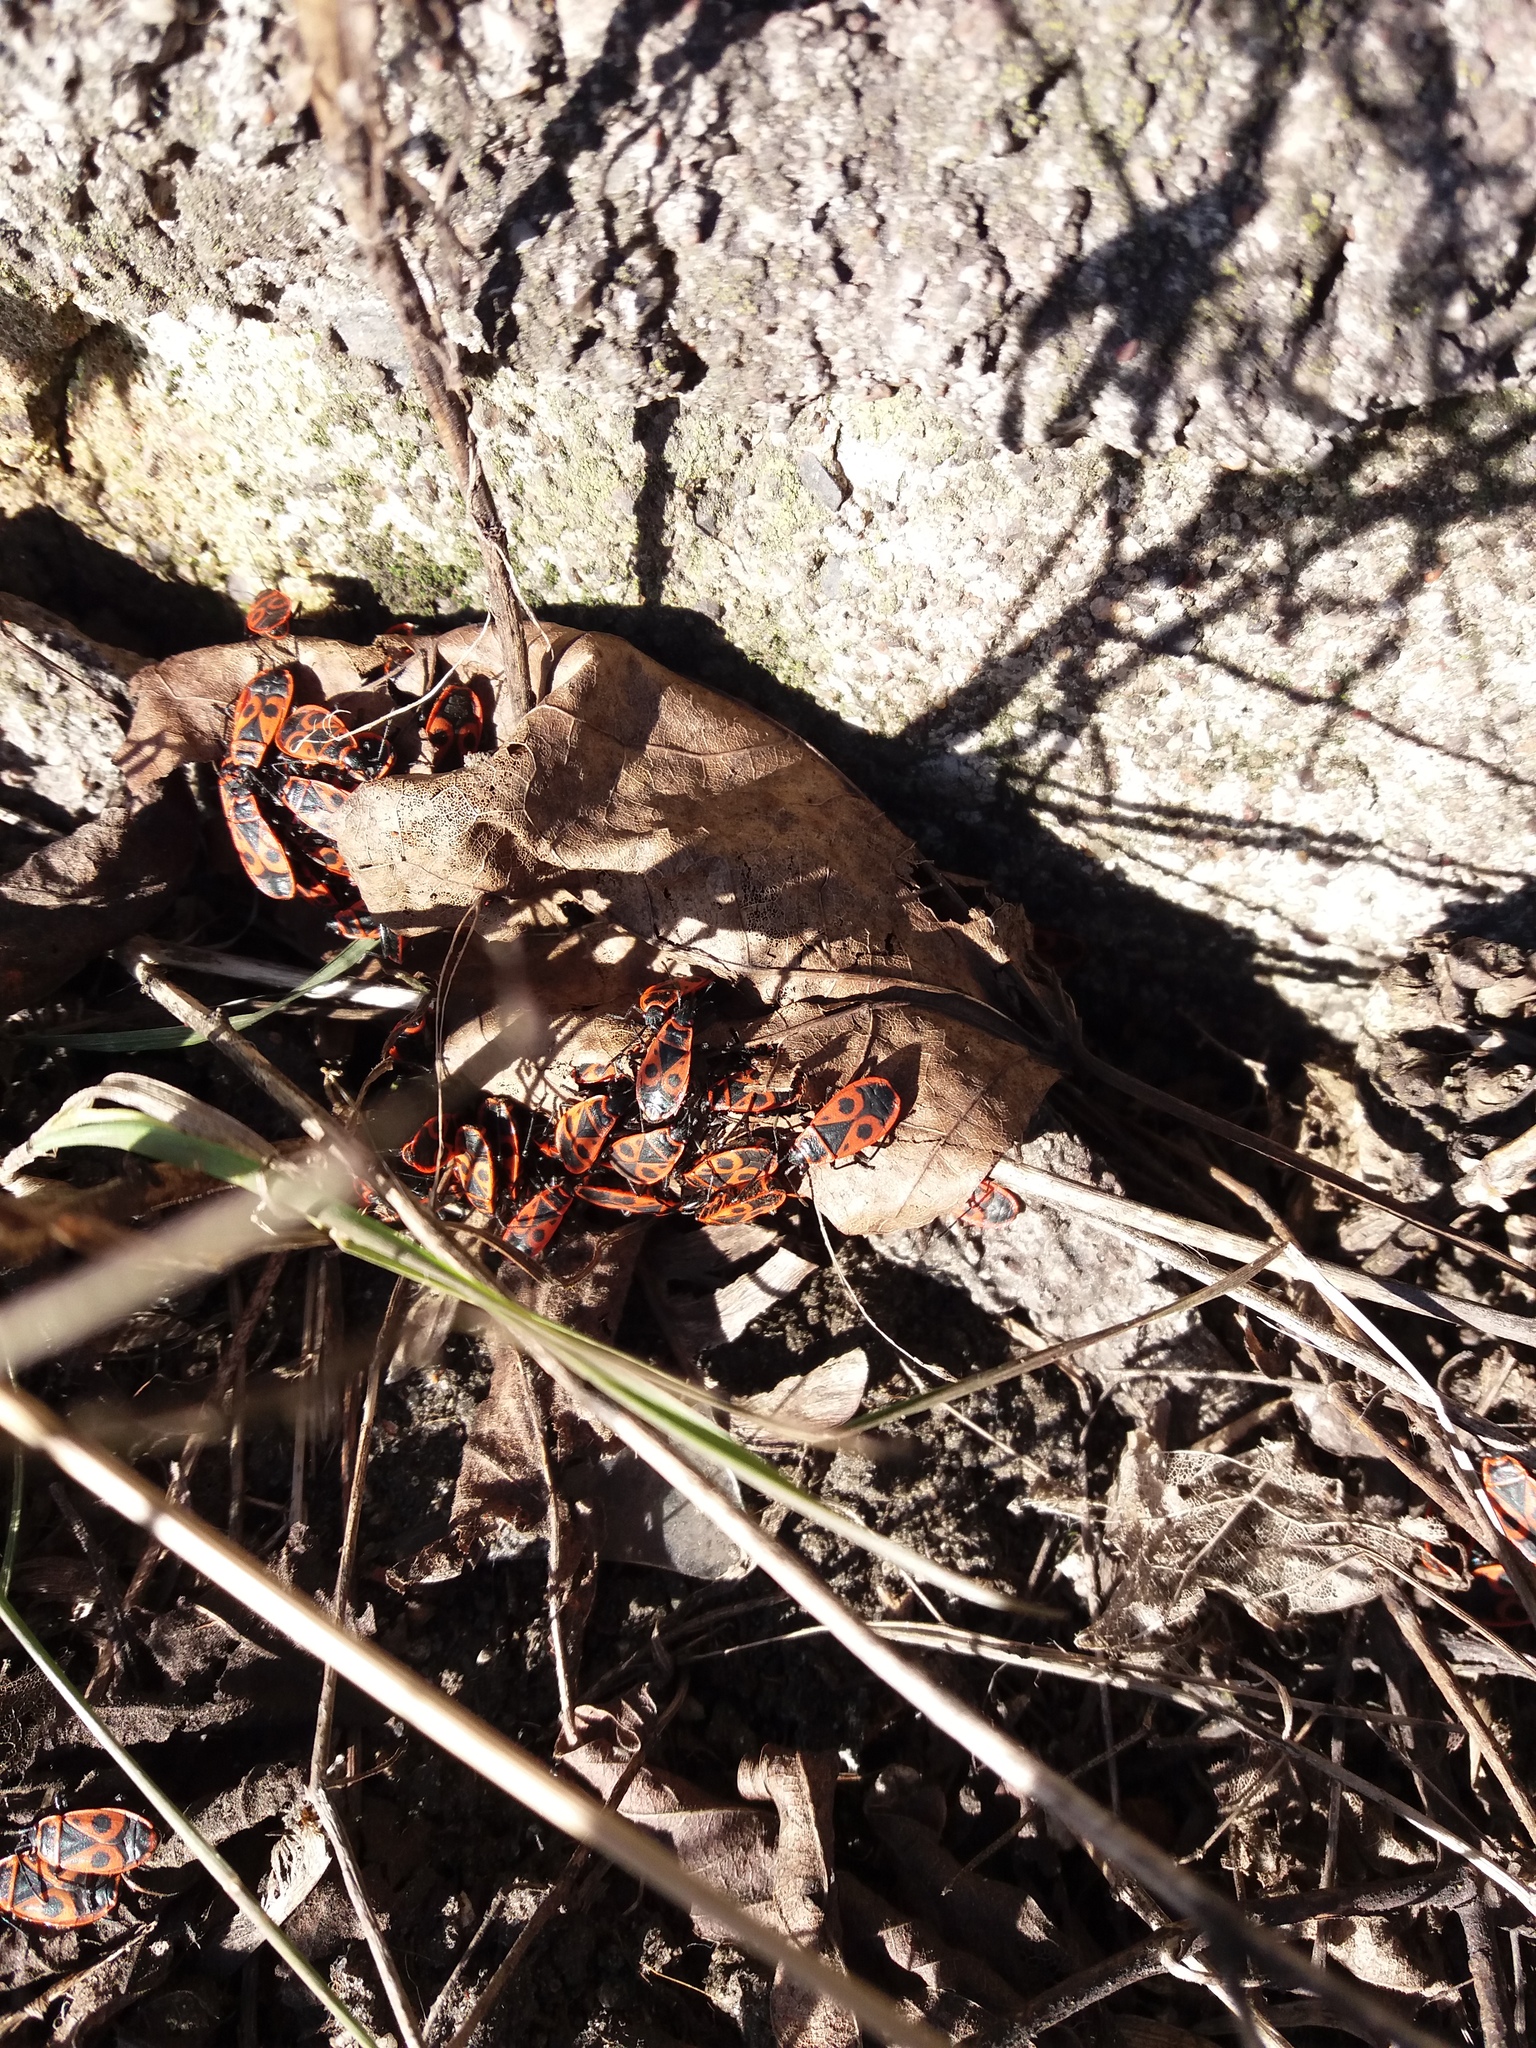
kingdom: Animalia
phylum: Arthropoda
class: Insecta
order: Hemiptera
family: Pyrrhocoridae
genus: Pyrrhocoris
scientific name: Pyrrhocoris apterus
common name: Firebug
